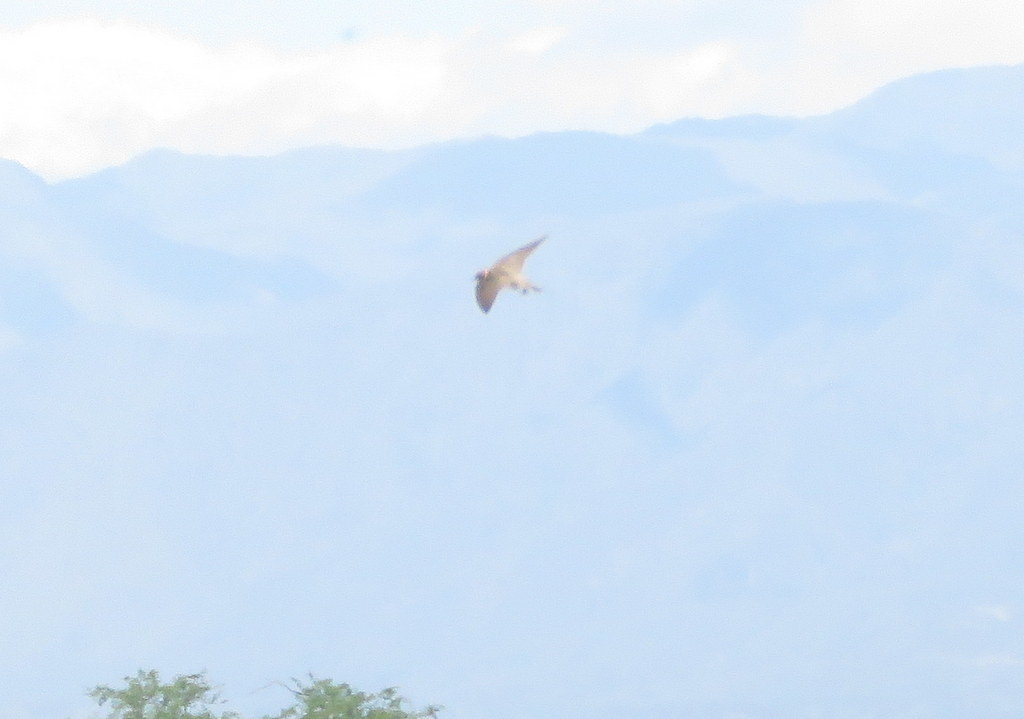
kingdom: Animalia
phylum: Chordata
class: Aves
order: Passeriformes
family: Hirundinidae
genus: Petrochelidon
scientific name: Petrochelidon pyrrhonota
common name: American cliff swallow
